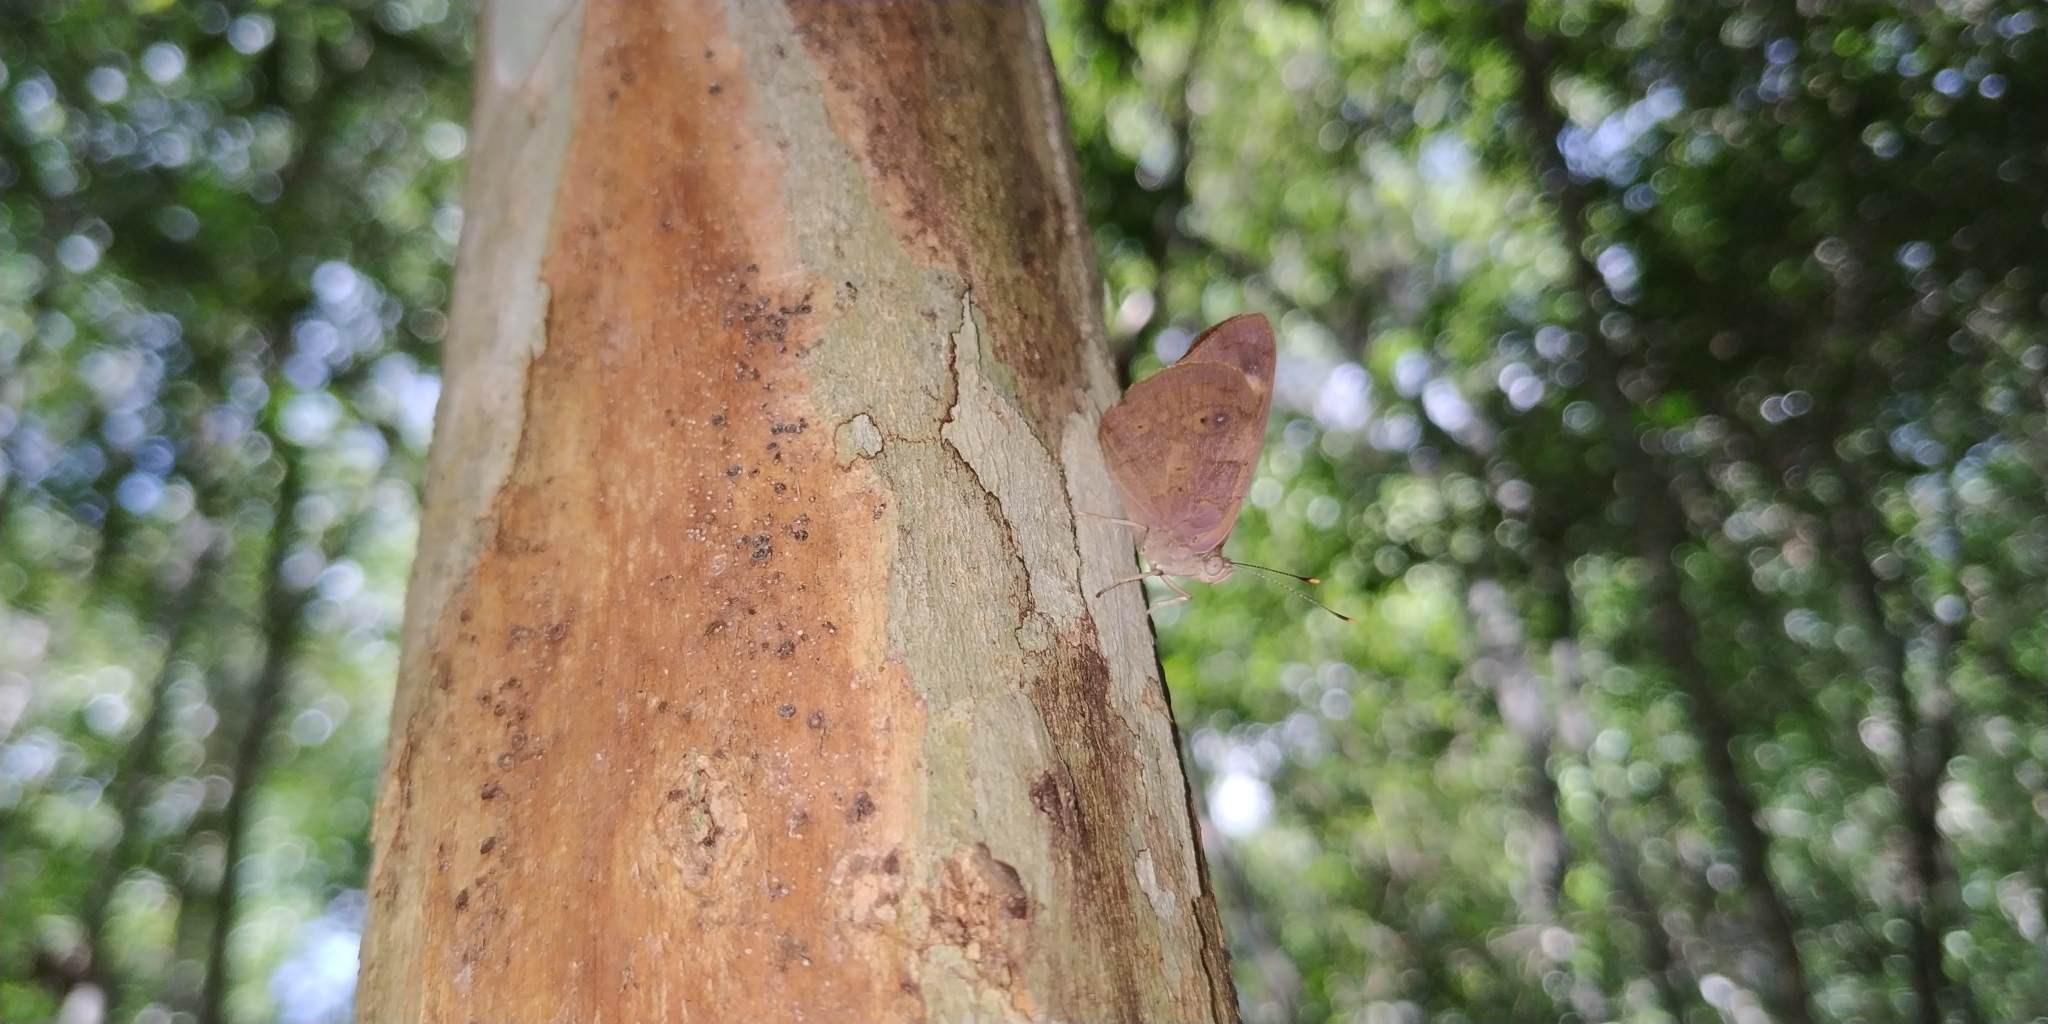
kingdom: Animalia
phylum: Arthropoda
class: Insecta
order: Lepidoptera
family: Nymphalidae
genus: Eunica
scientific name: Eunica monima
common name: Dingy purplewing
